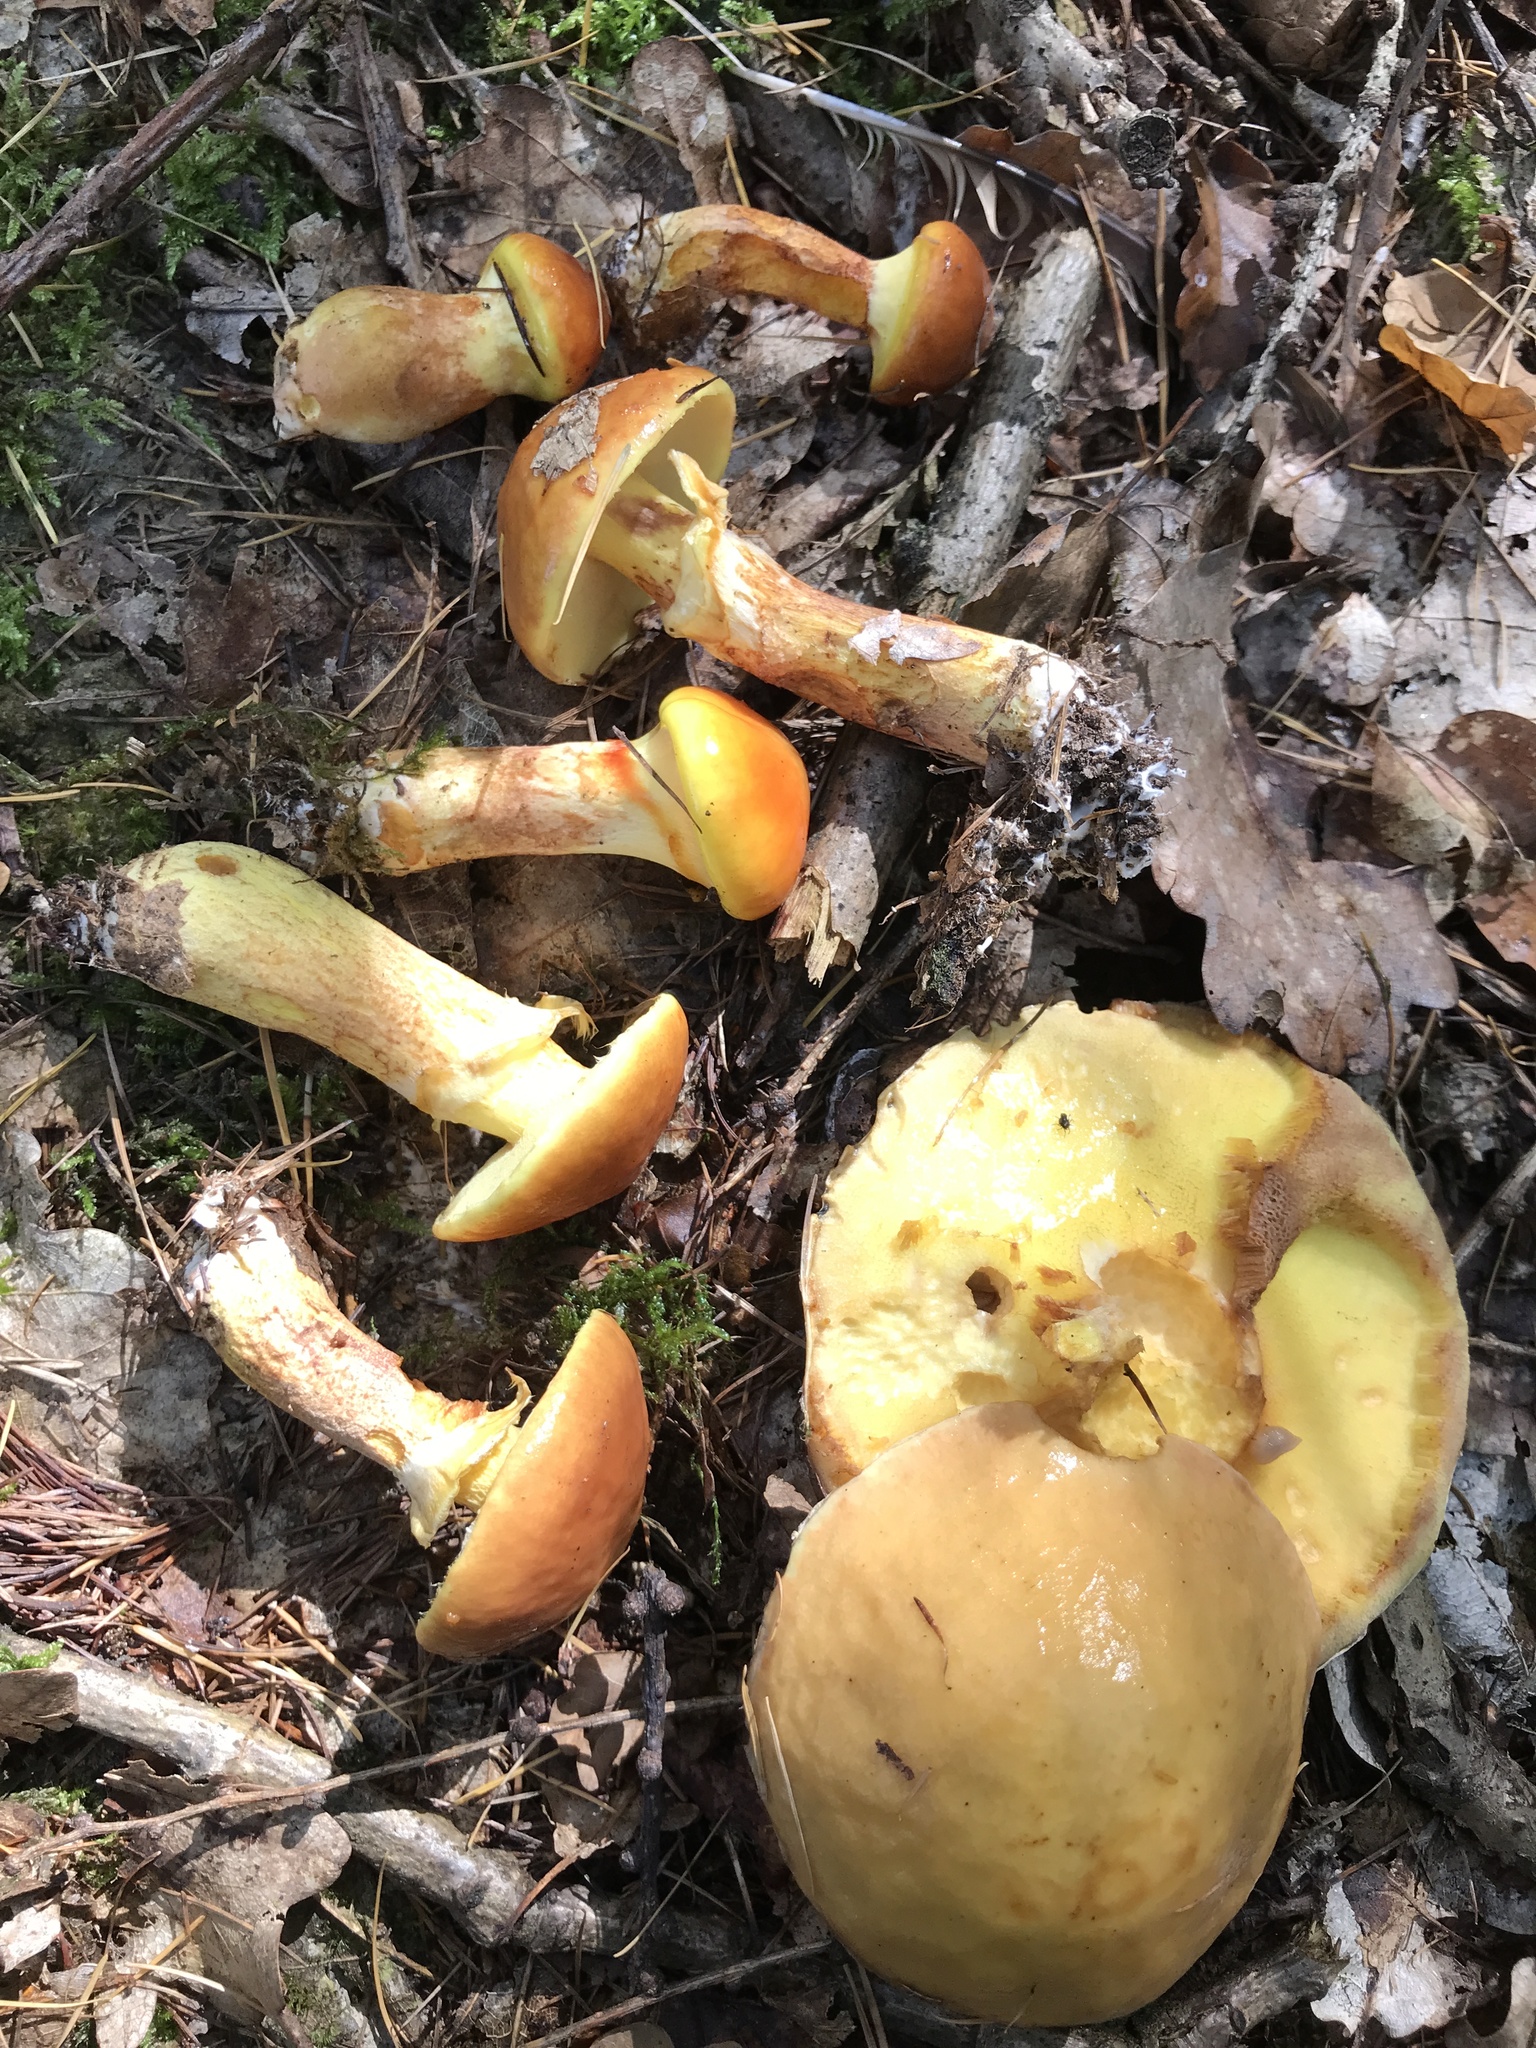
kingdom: Fungi
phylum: Basidiomycota
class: Agaricomycetes
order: Boletales
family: Suillaceae
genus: Suillus
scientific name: Suillus grevillei
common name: Larch bolete
